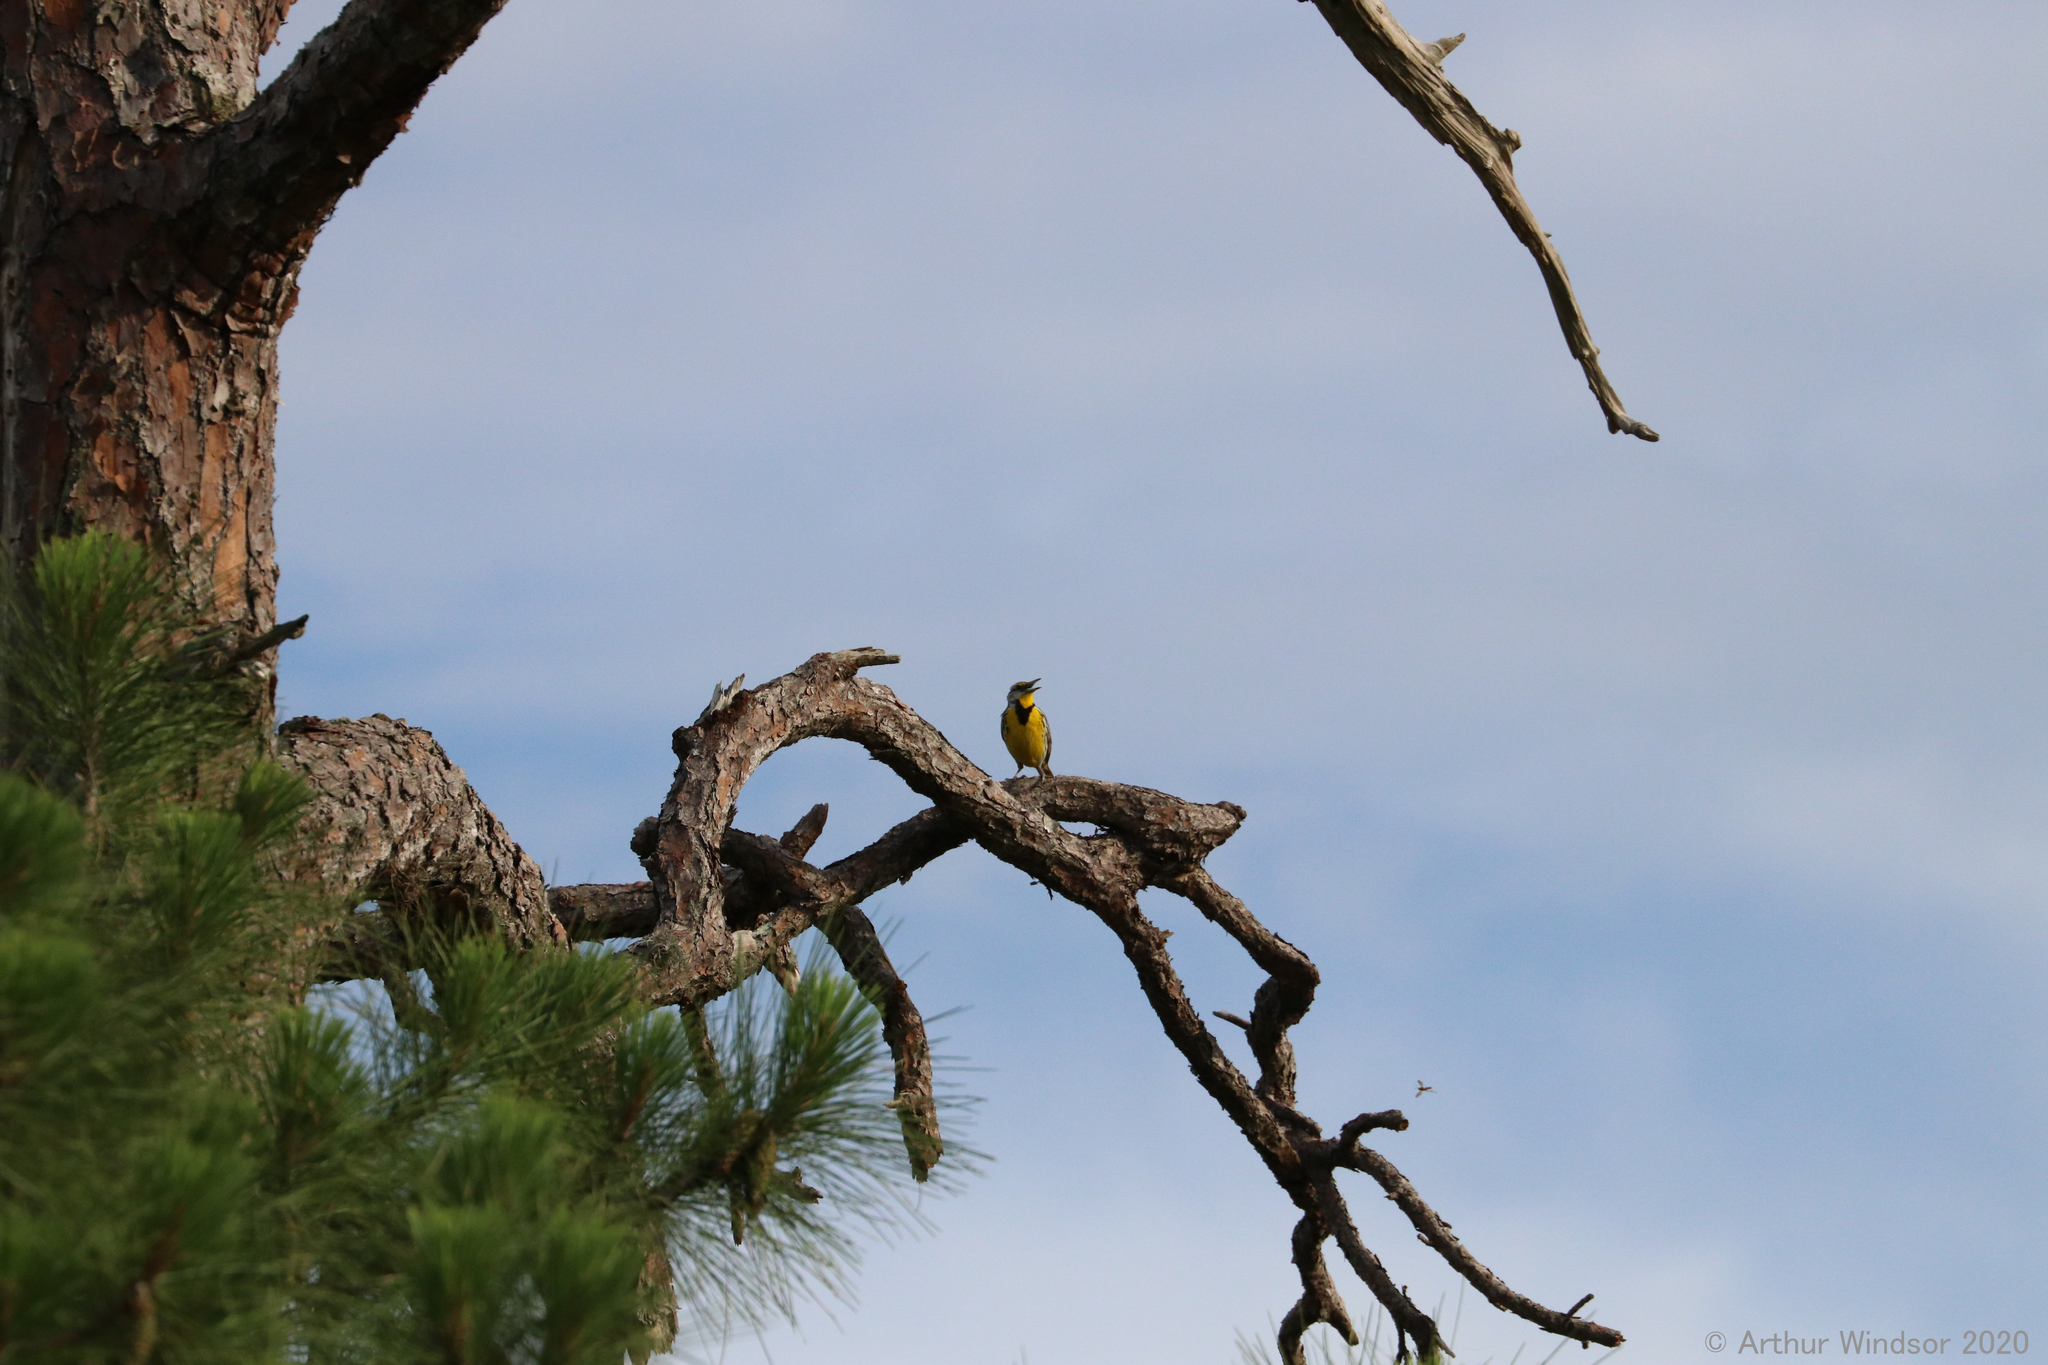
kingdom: Animalia
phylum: Chordata
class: Aves
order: Passeriformes
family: Icteridae
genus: Sturnella
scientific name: Sturnella magna
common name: Eastern meadowlark
